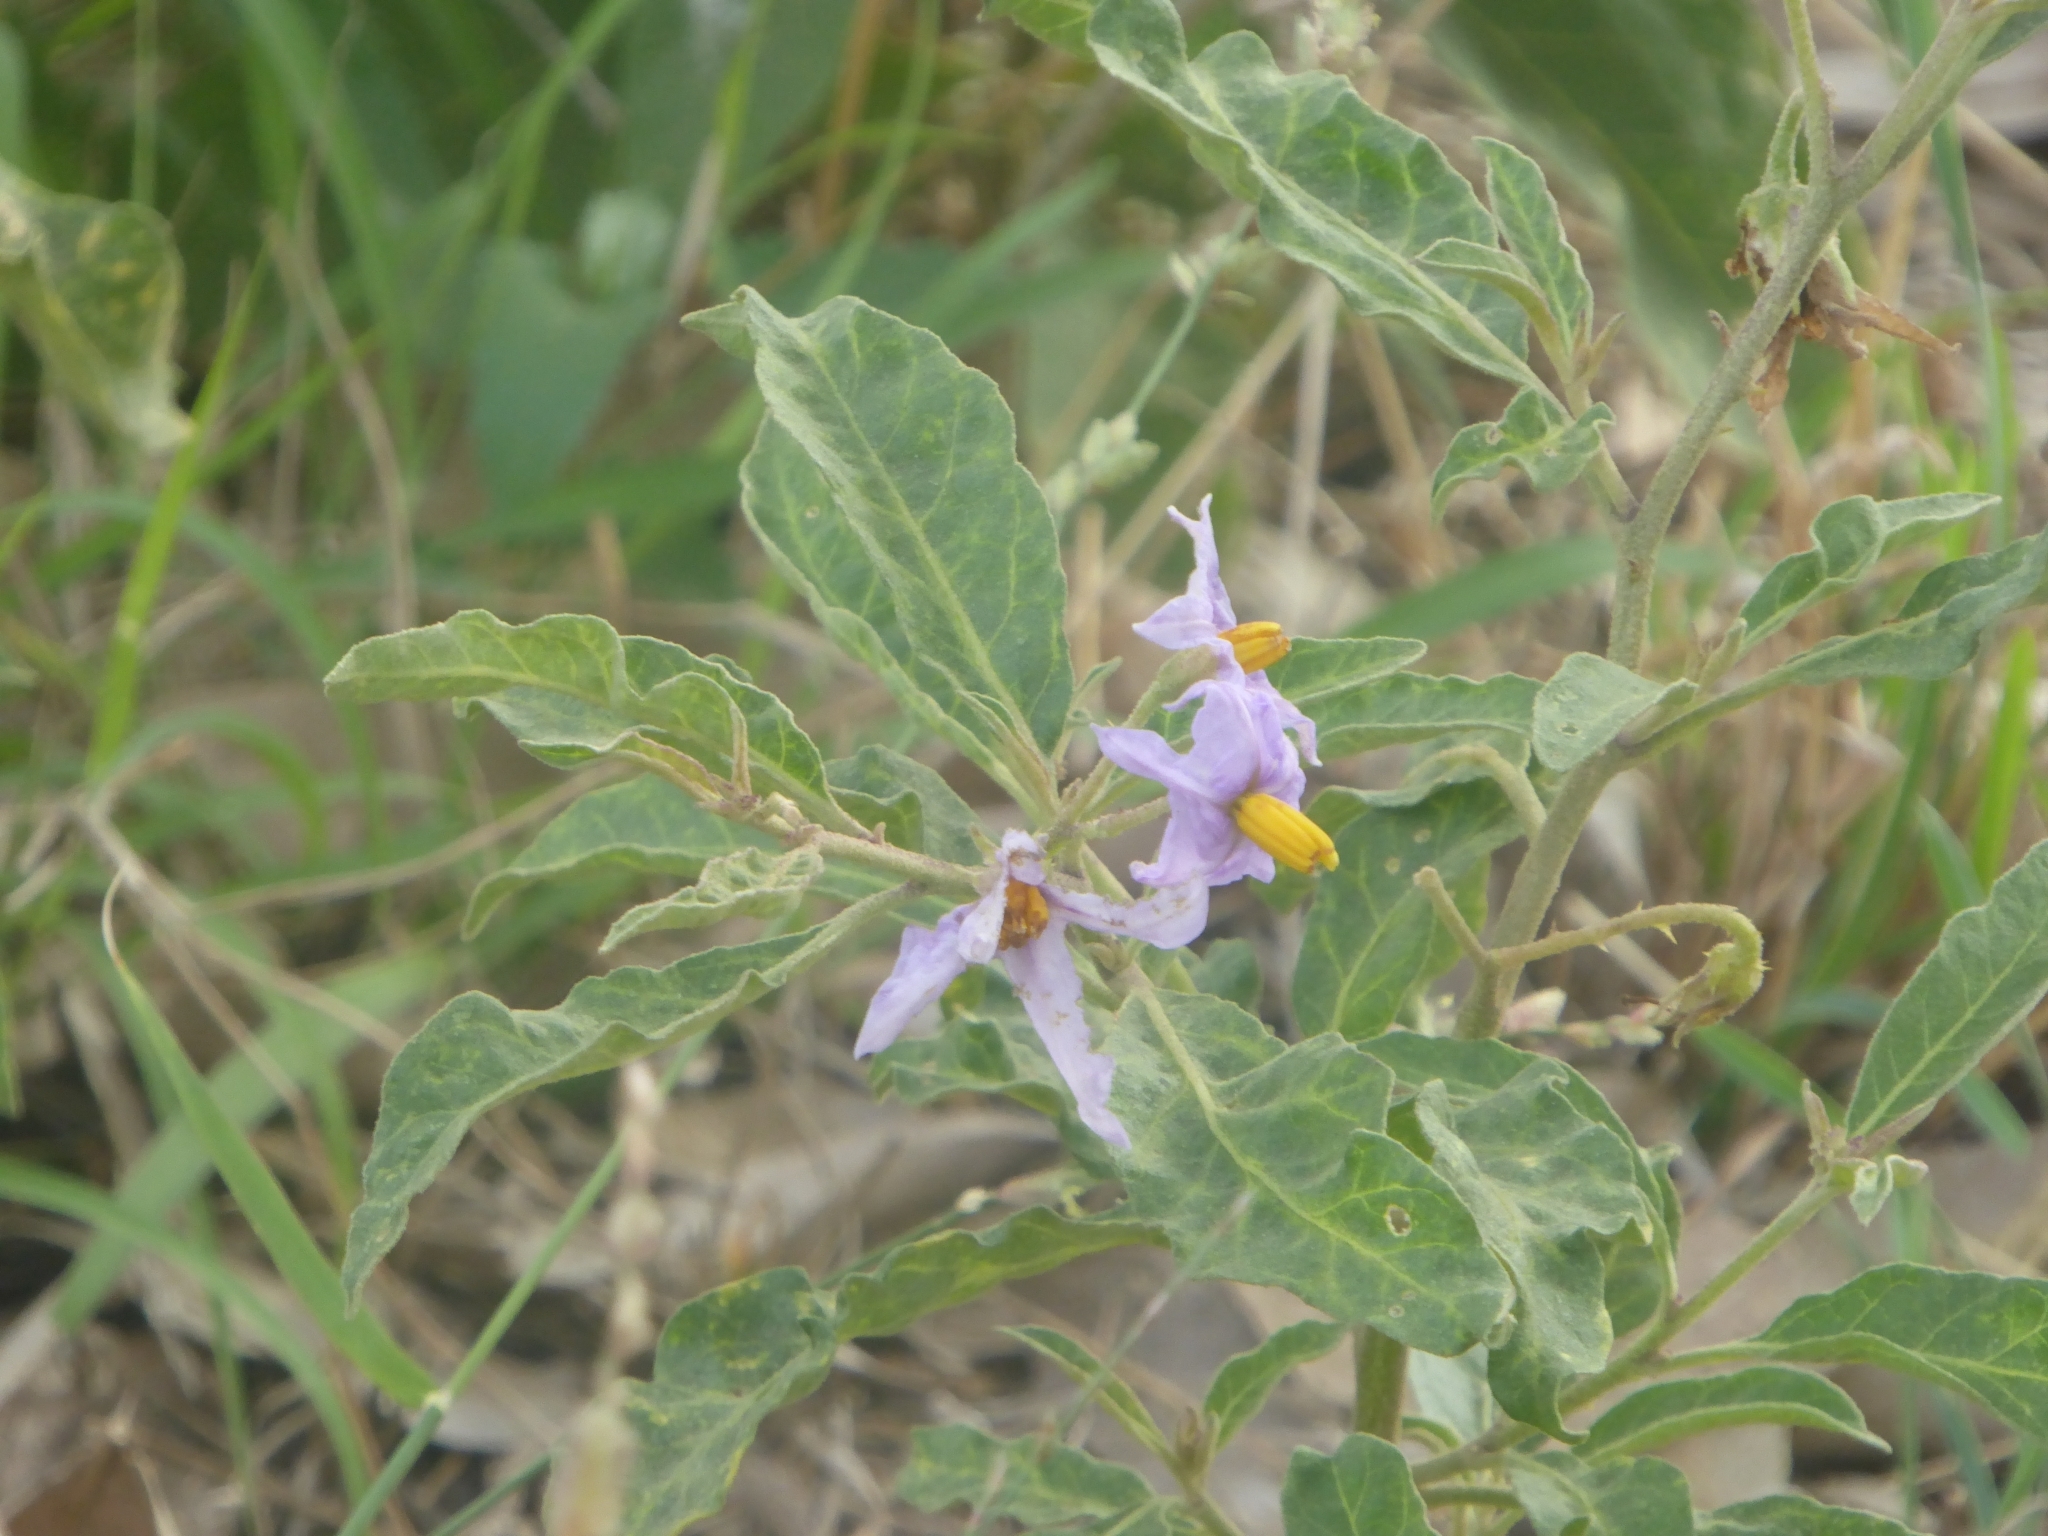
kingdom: Plantae
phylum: Tracheophyta
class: Magnoliopsida
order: Solanales
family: Solanaceae
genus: Solanum
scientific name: Solanum campylacanthum
